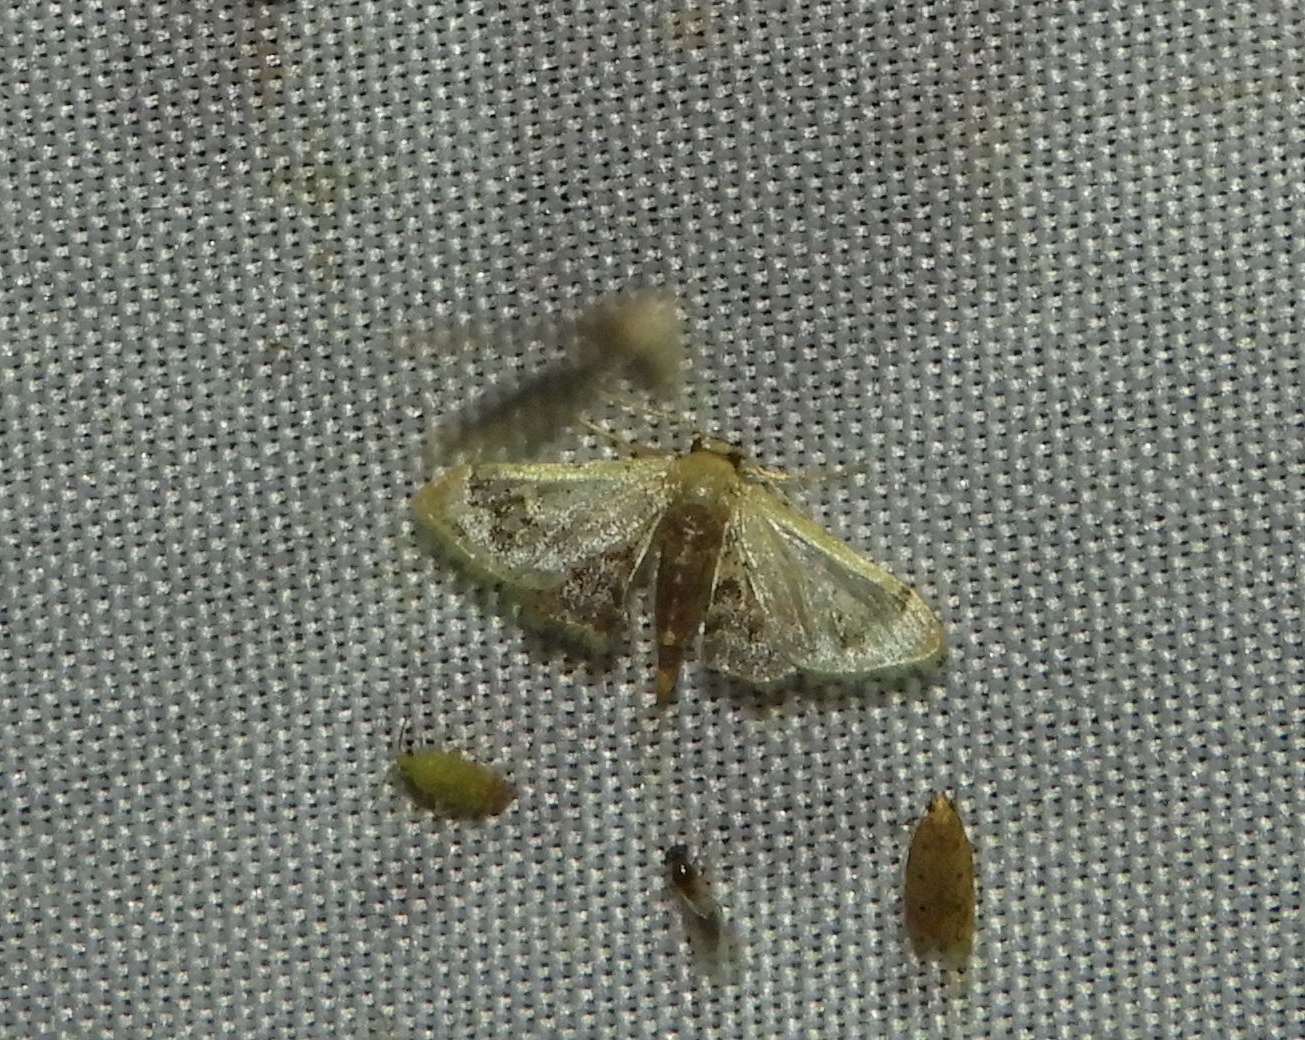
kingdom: Animalia
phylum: Arthropoda
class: Insecta
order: Lepidoptera
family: Geometridae
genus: Idaea
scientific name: Idaea
